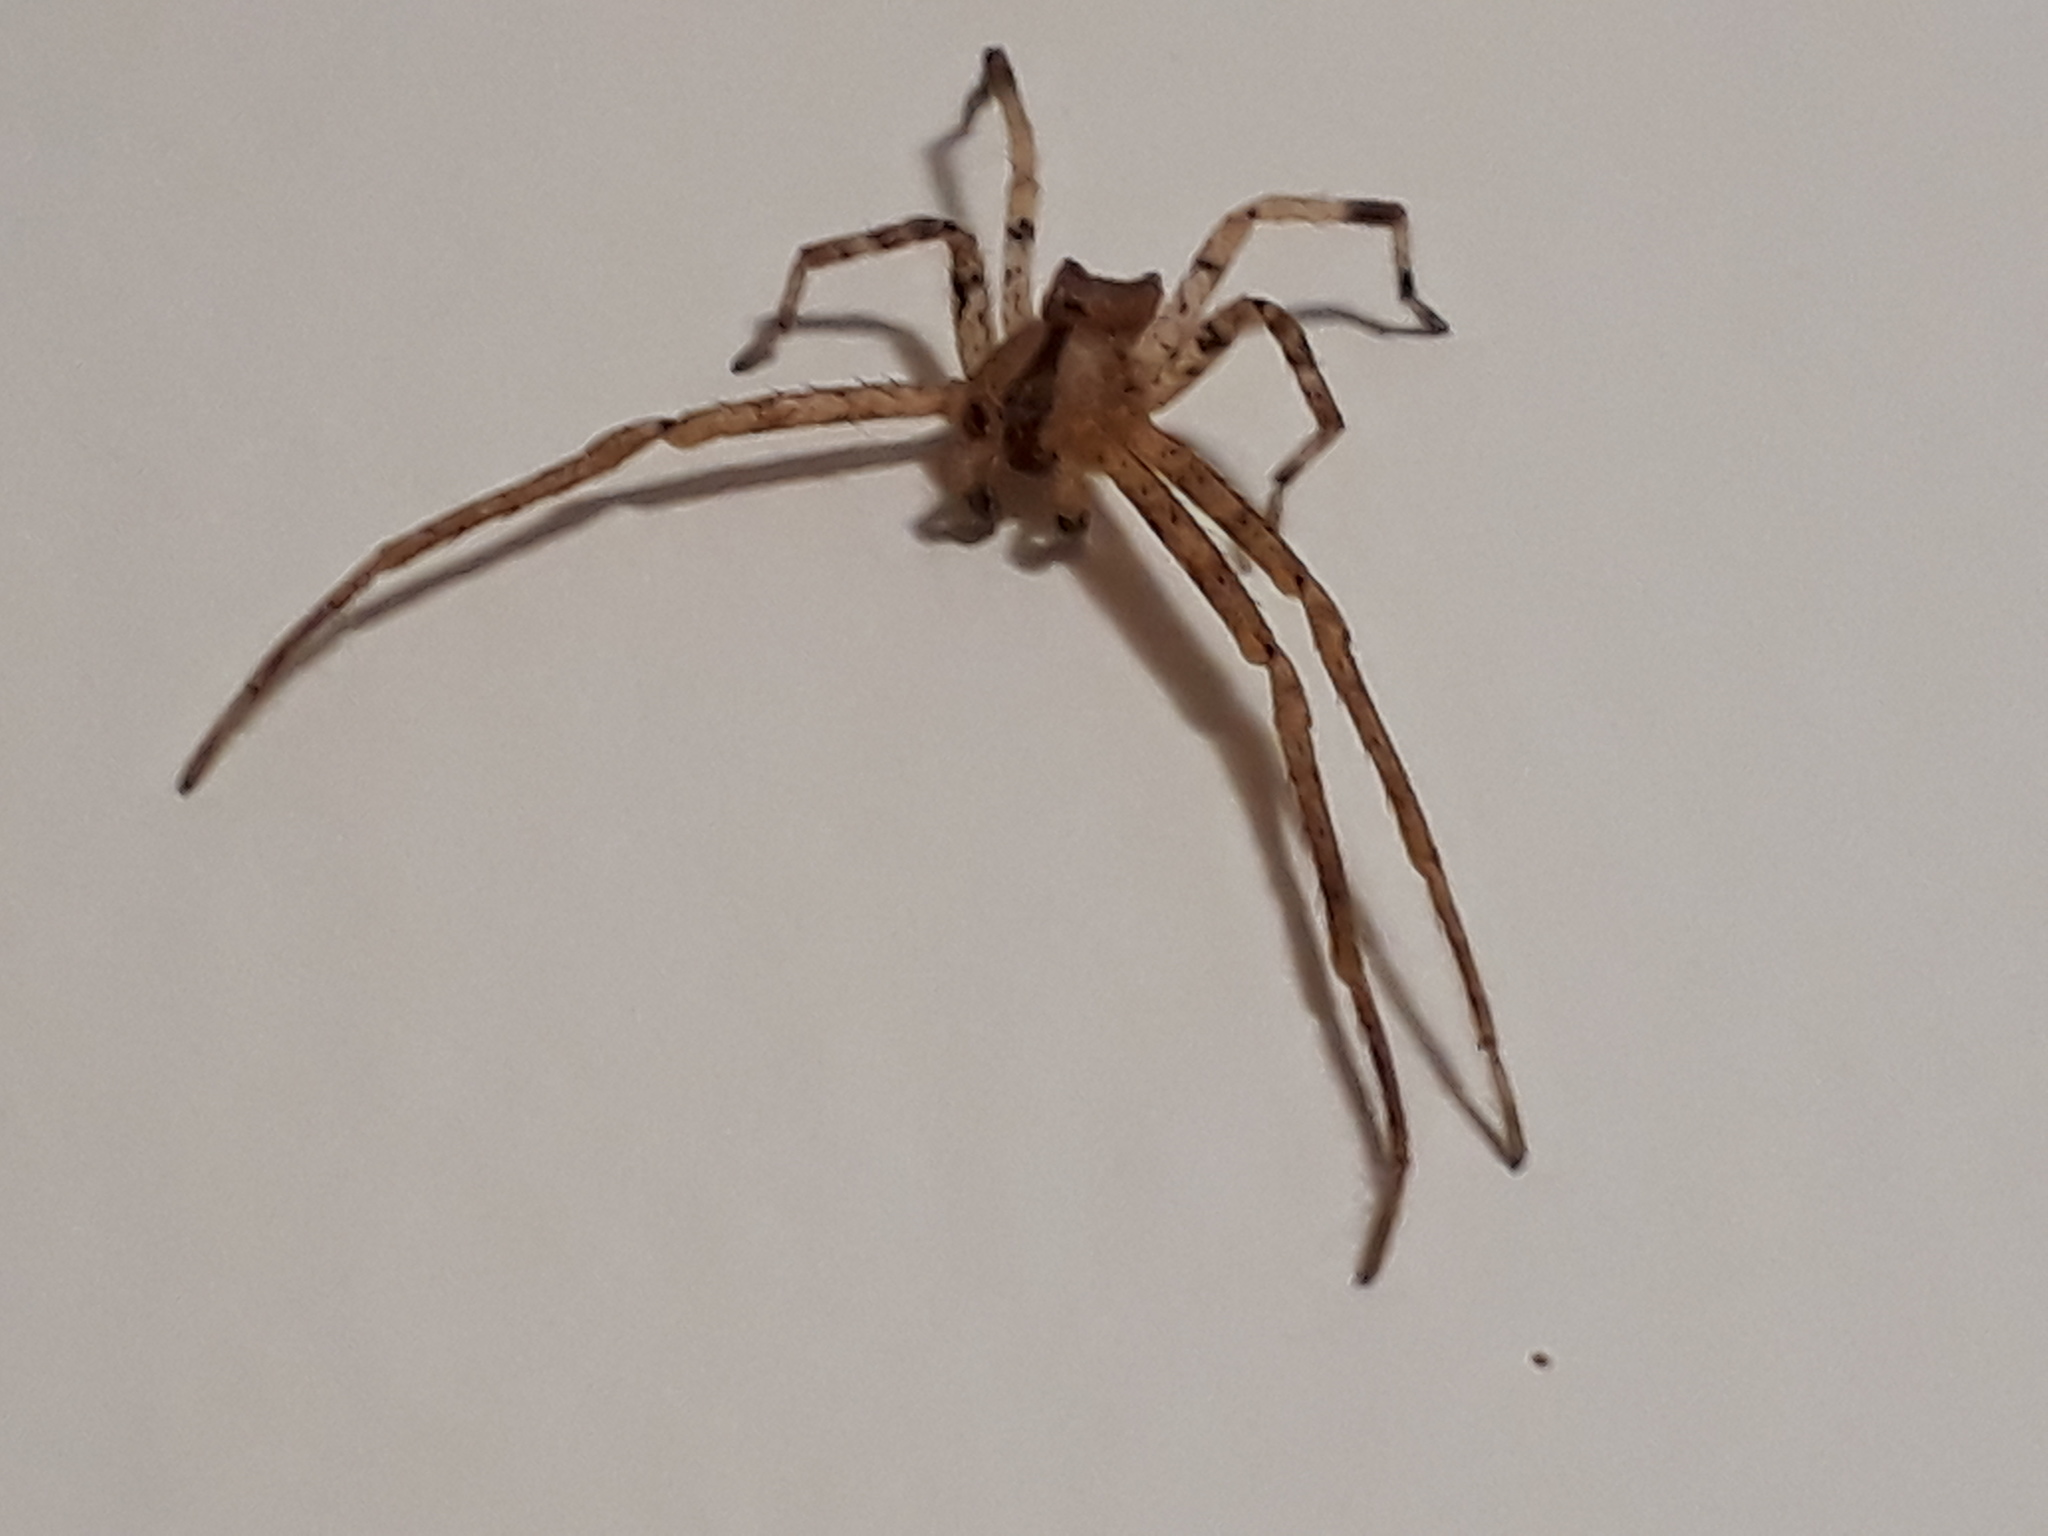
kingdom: Animalia
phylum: Arthropoda
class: Arachnida
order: Araneae
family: Thomisidae
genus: Sidymella
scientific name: Sidymella longipes
